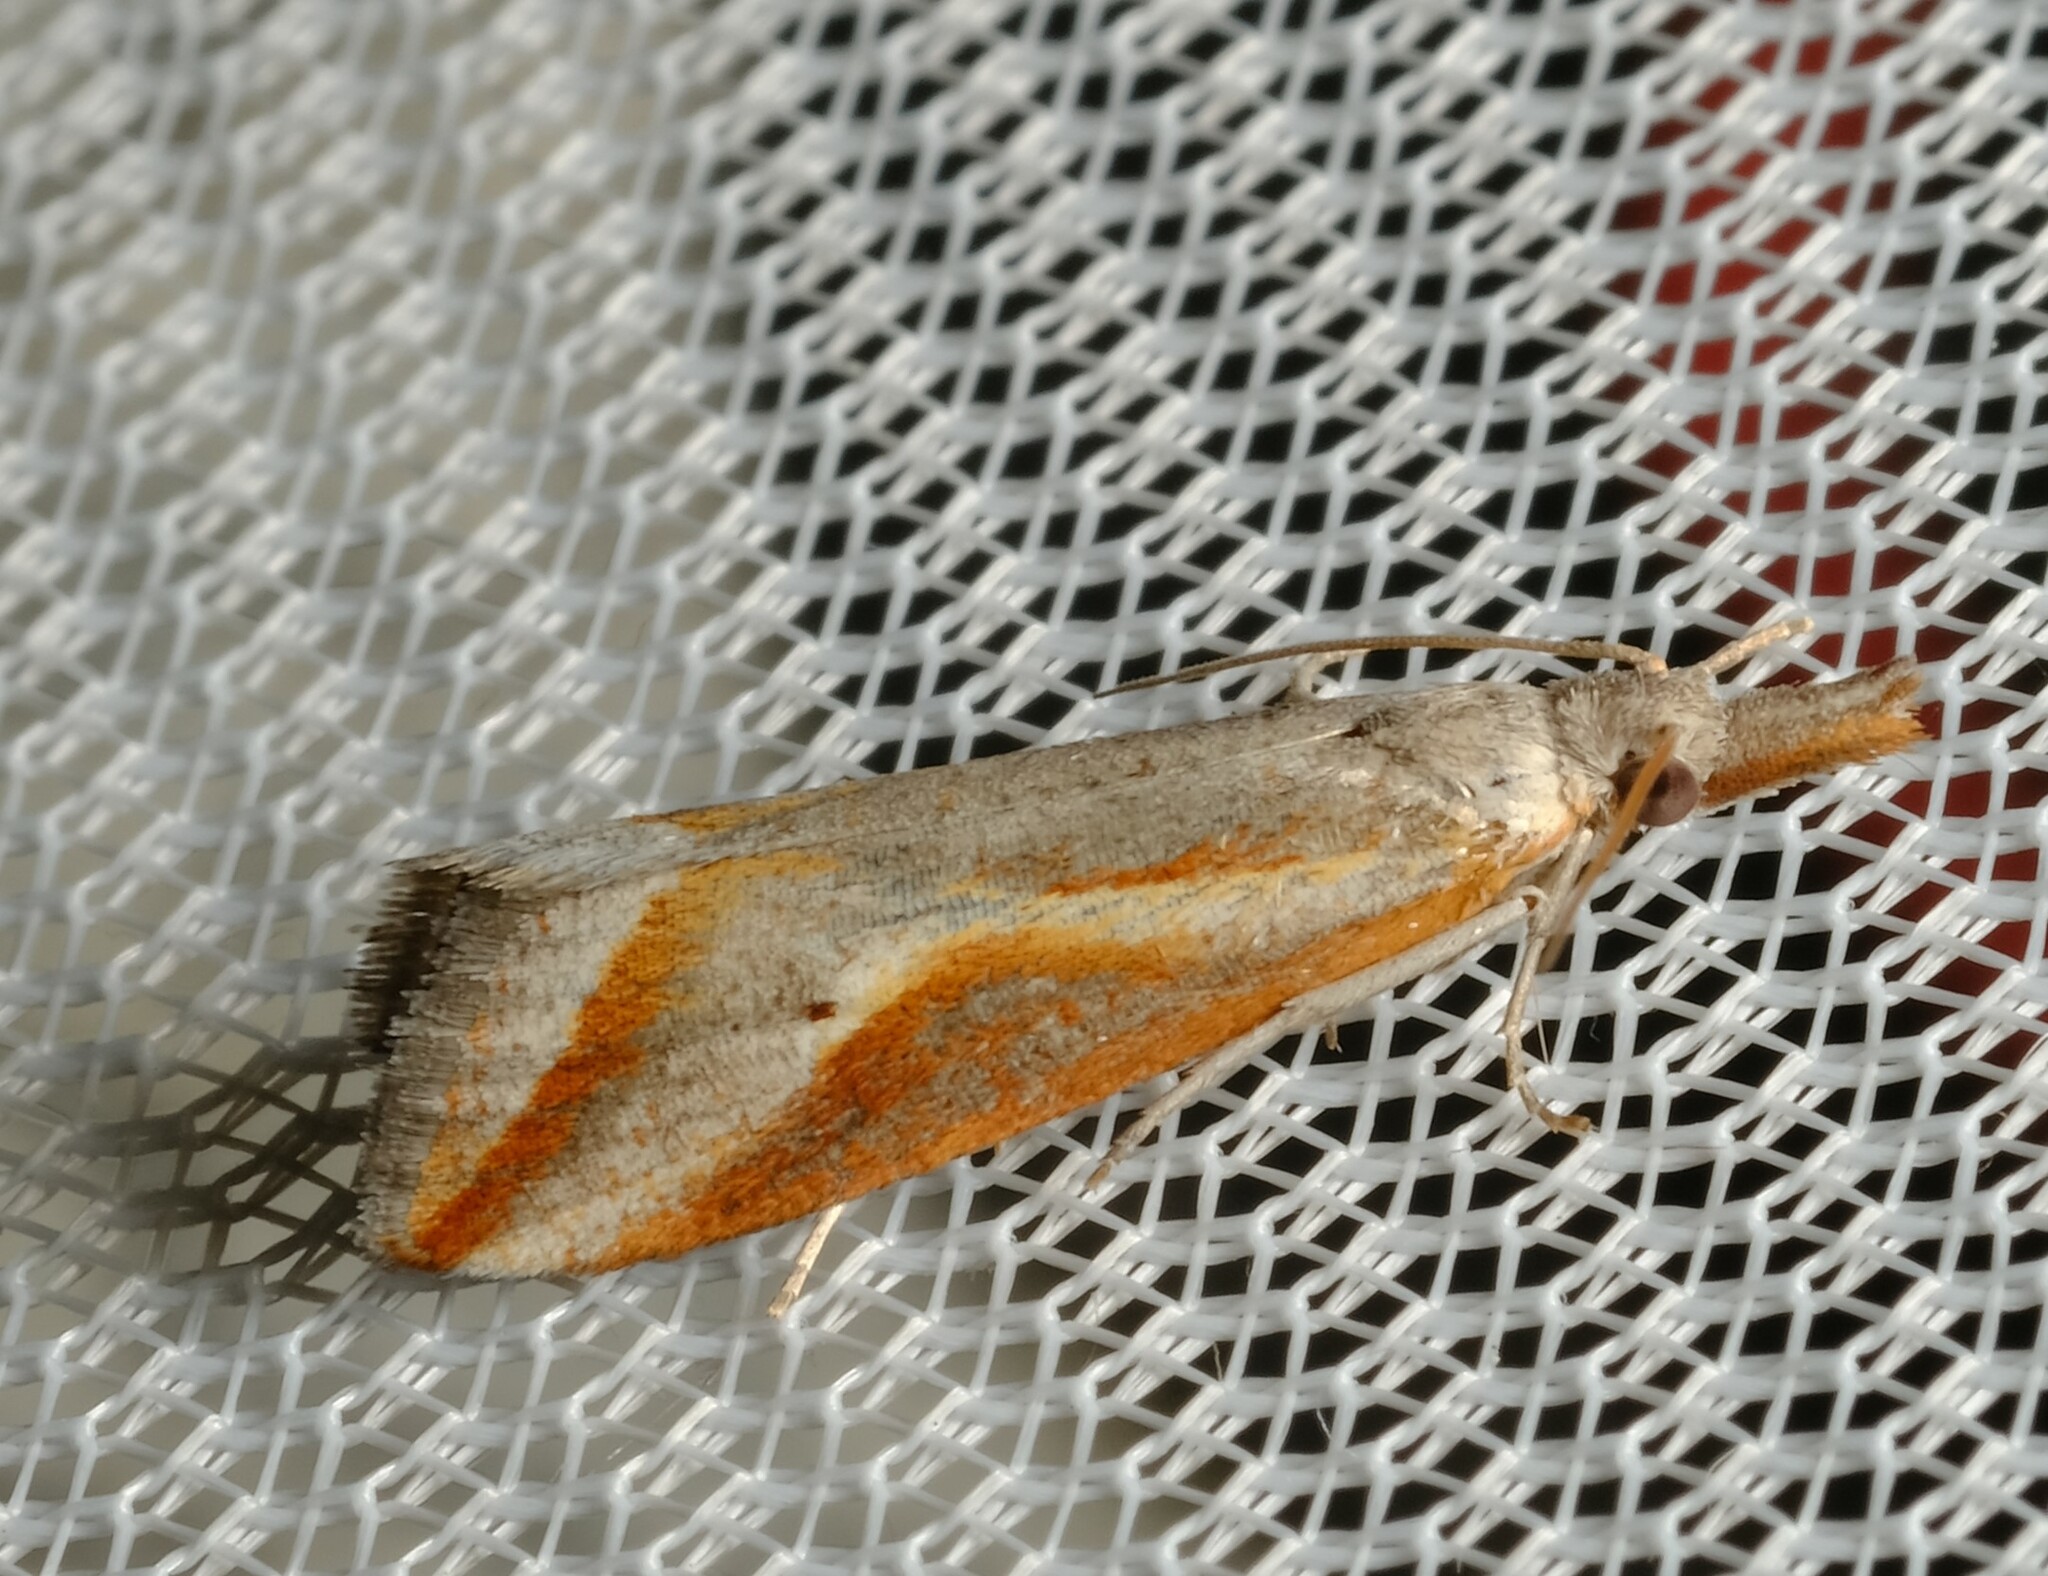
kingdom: Animalia
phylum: Arthropoda
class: Insecta
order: Lepidoptera
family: Tortricidae
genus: Arotrophora
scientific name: Arotrophora arcuatalis
